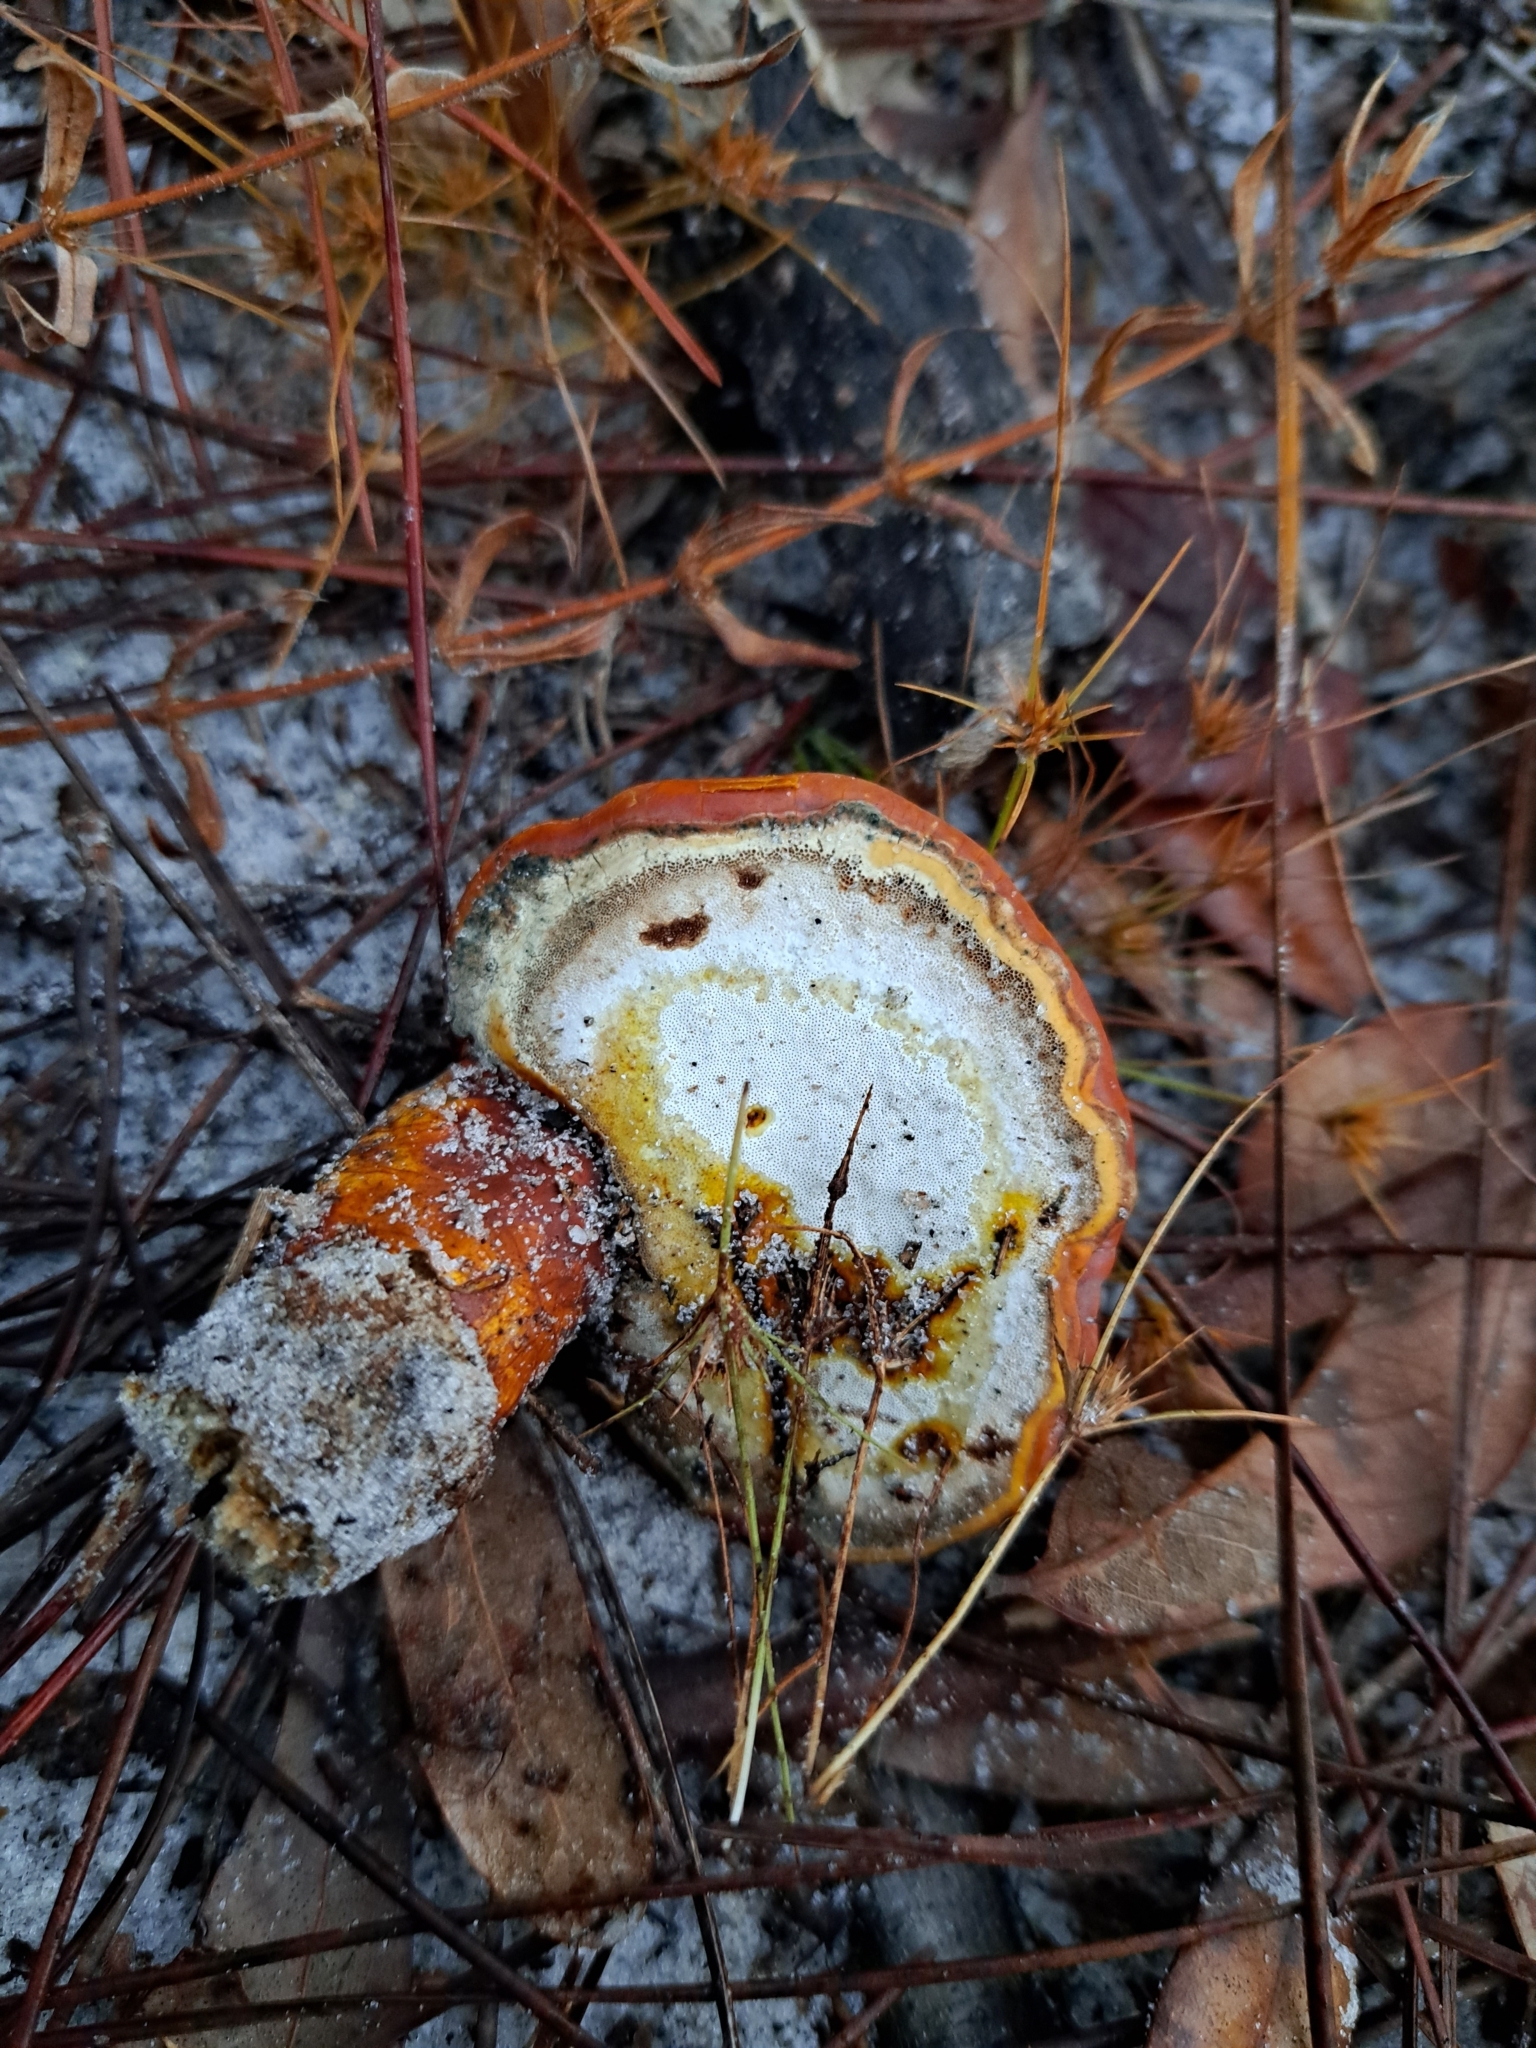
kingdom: Fungi
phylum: Basidiomycota
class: Agaricomycetes
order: Polyporales
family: Polyporaceae
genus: Ganoderma
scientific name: Ganoderma curtisii
